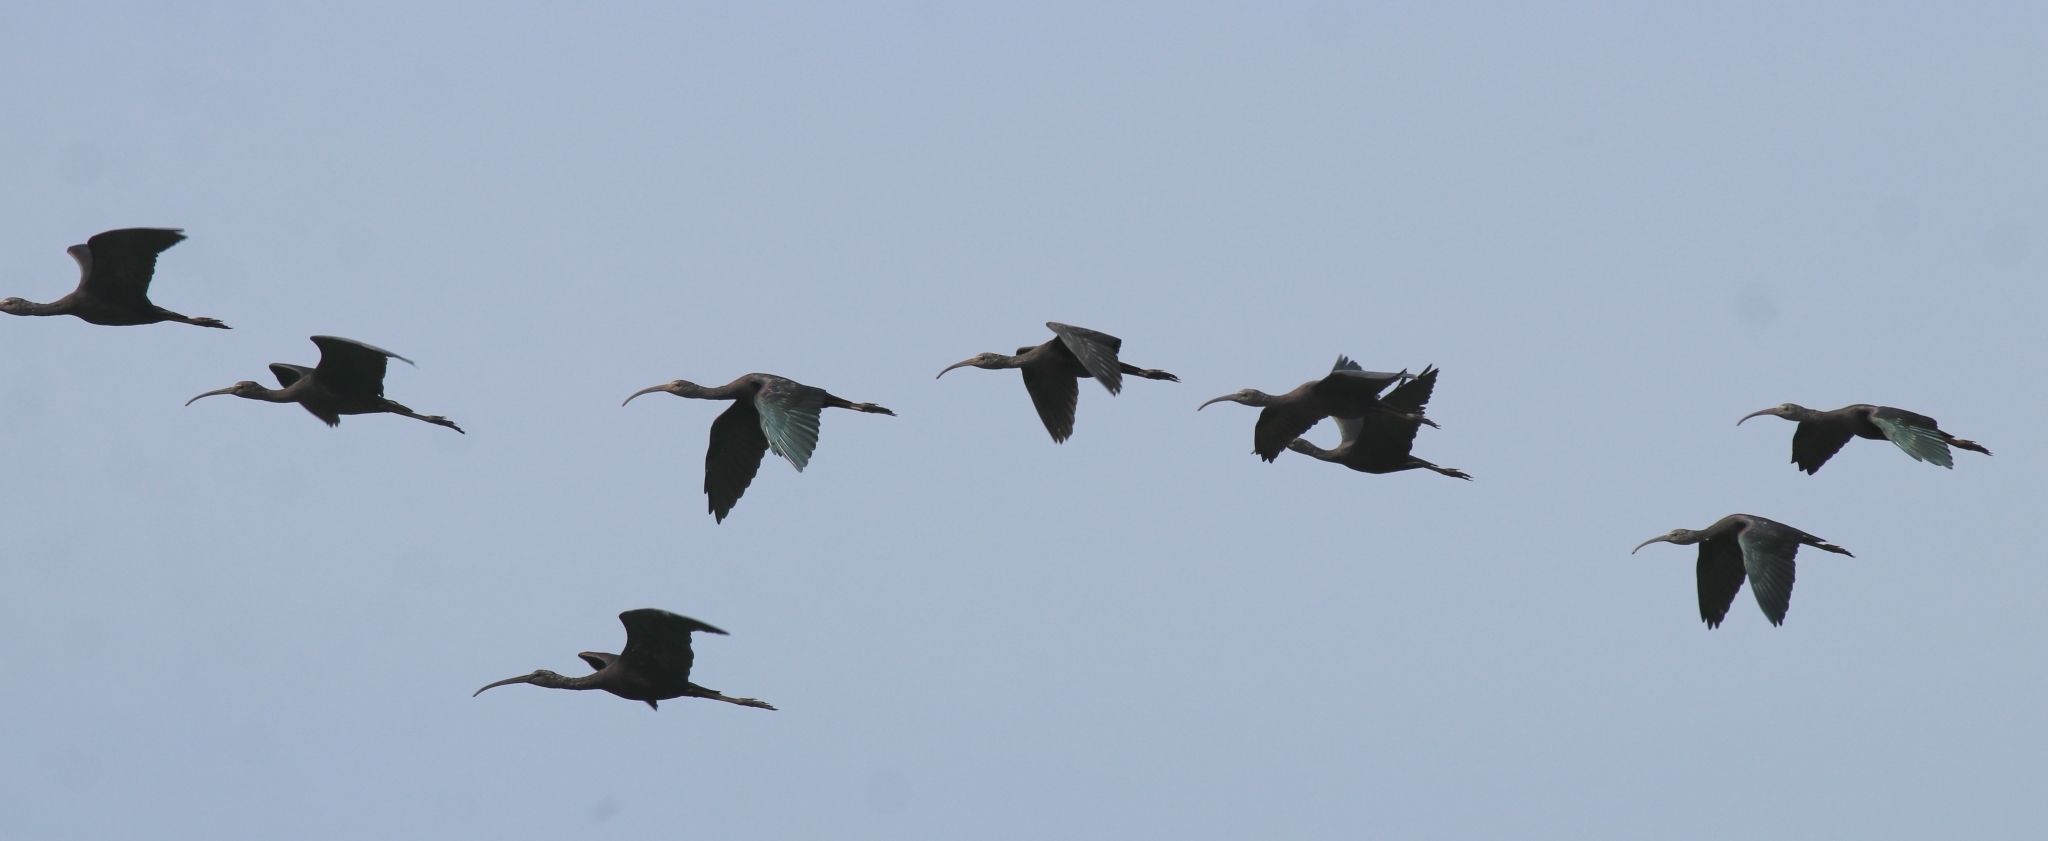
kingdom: Animalia
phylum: Chordata
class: Aves
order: Pelecaniformes
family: Threskiornithidae
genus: Plegadis
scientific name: Plegadis falcinellus
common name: Glossy ibis
